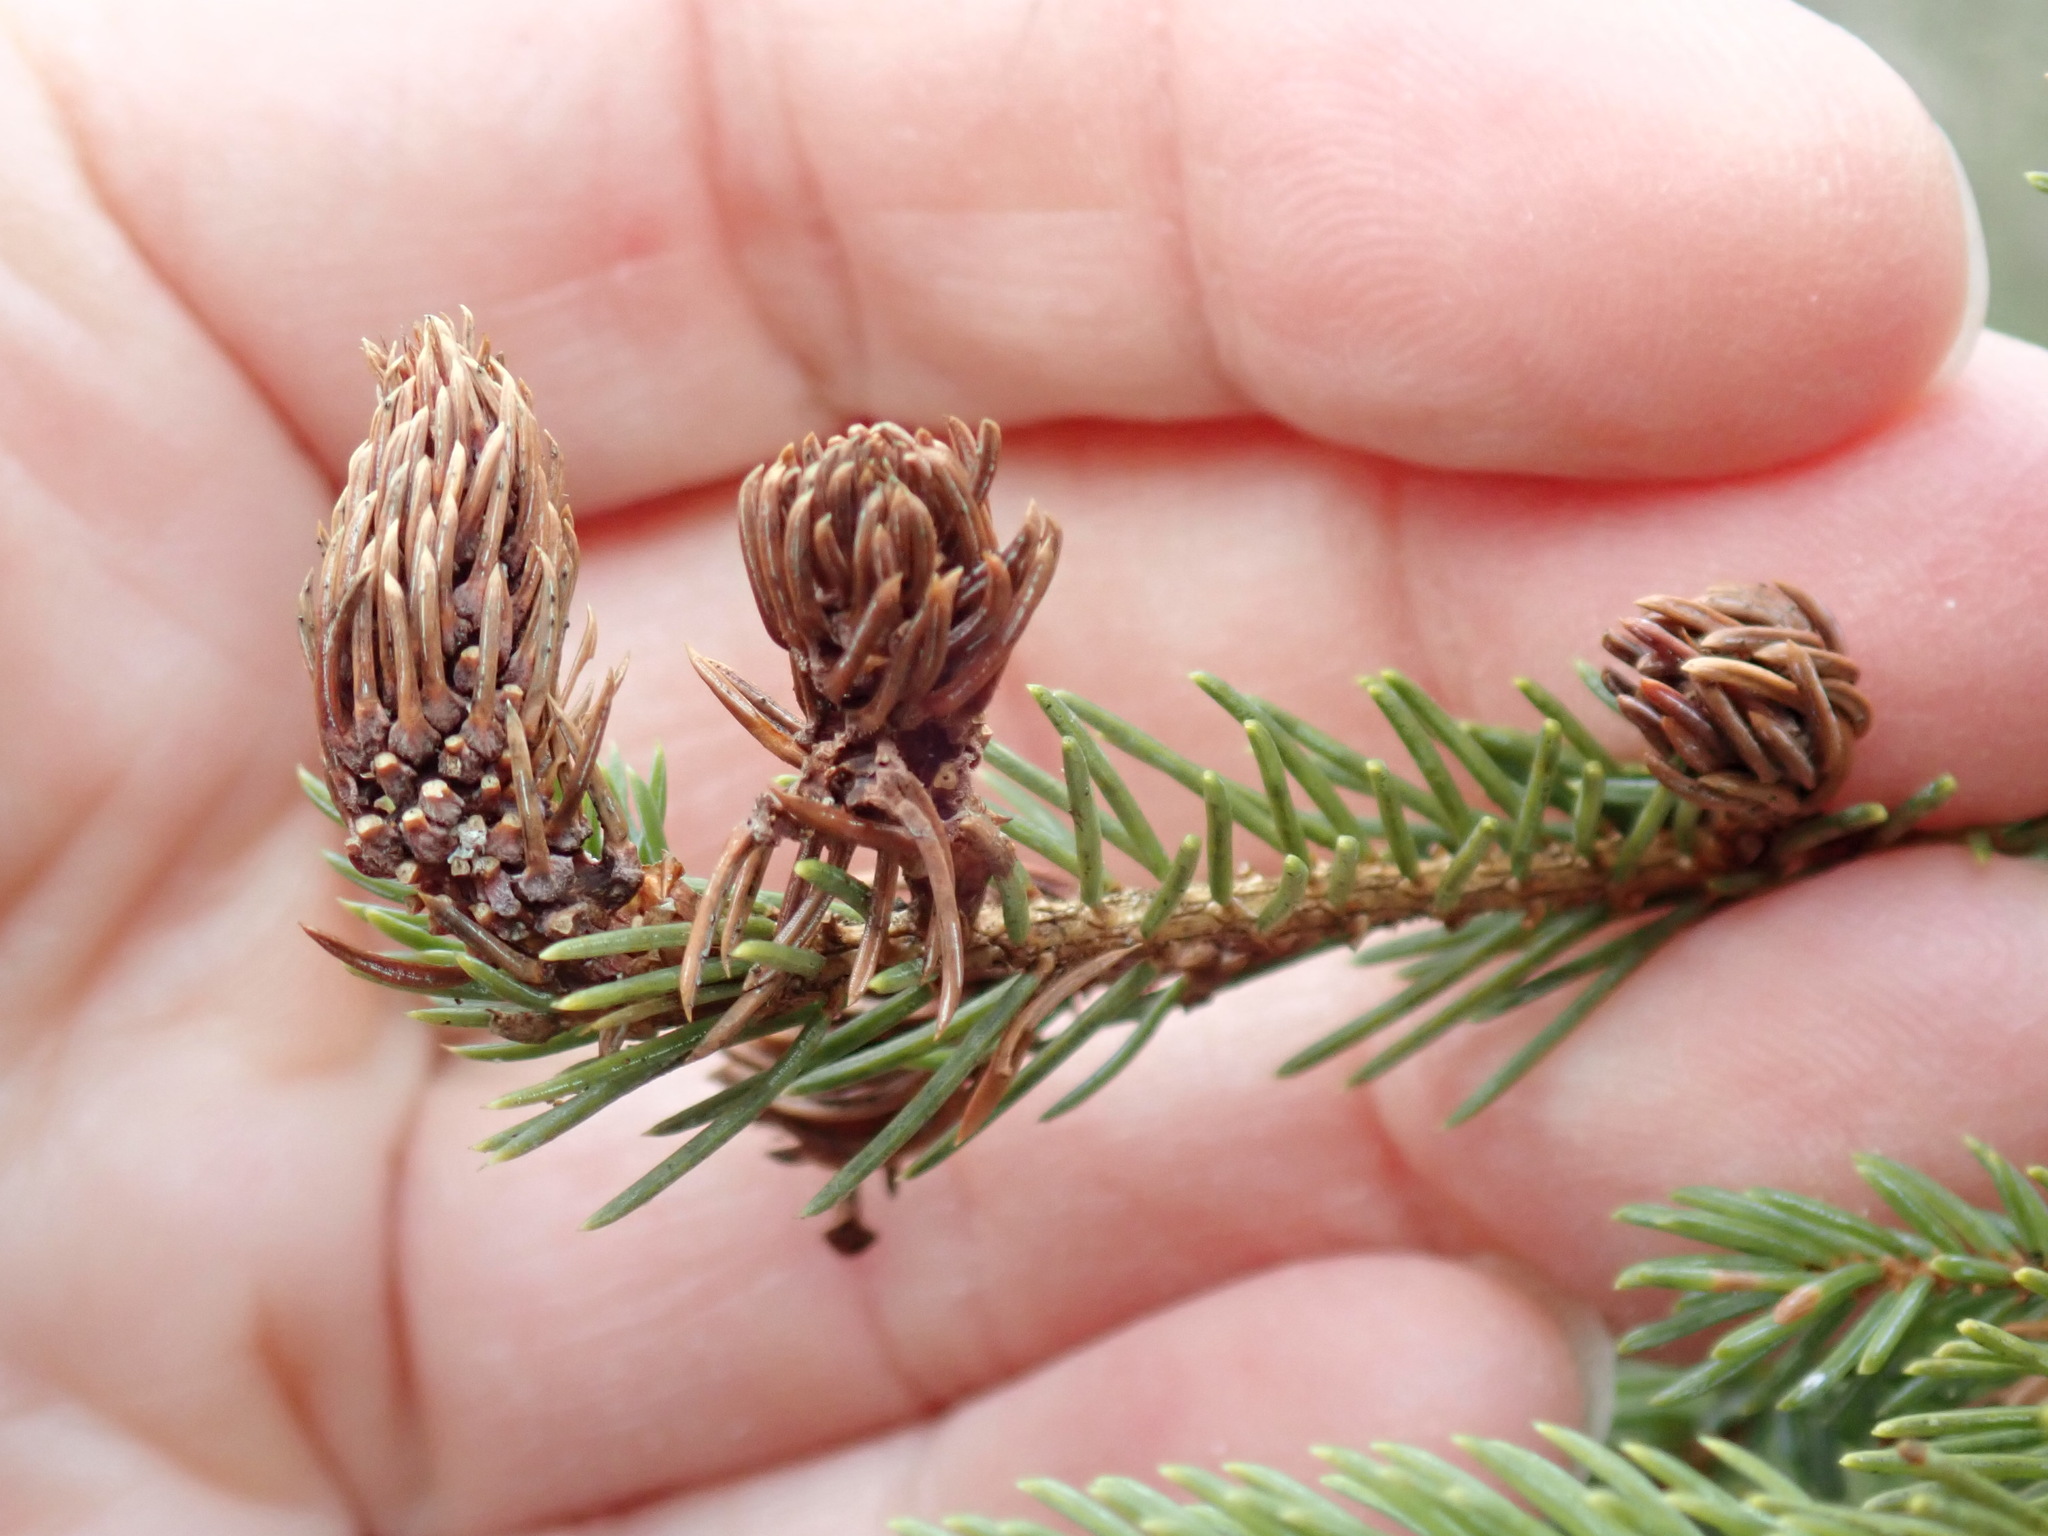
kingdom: Animalia
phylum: Arthropoda
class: Insecta
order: Hemiptera
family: Adelgidae
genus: Adelges
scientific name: Adelges abietis
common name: Eastern spruce gall adelgid
